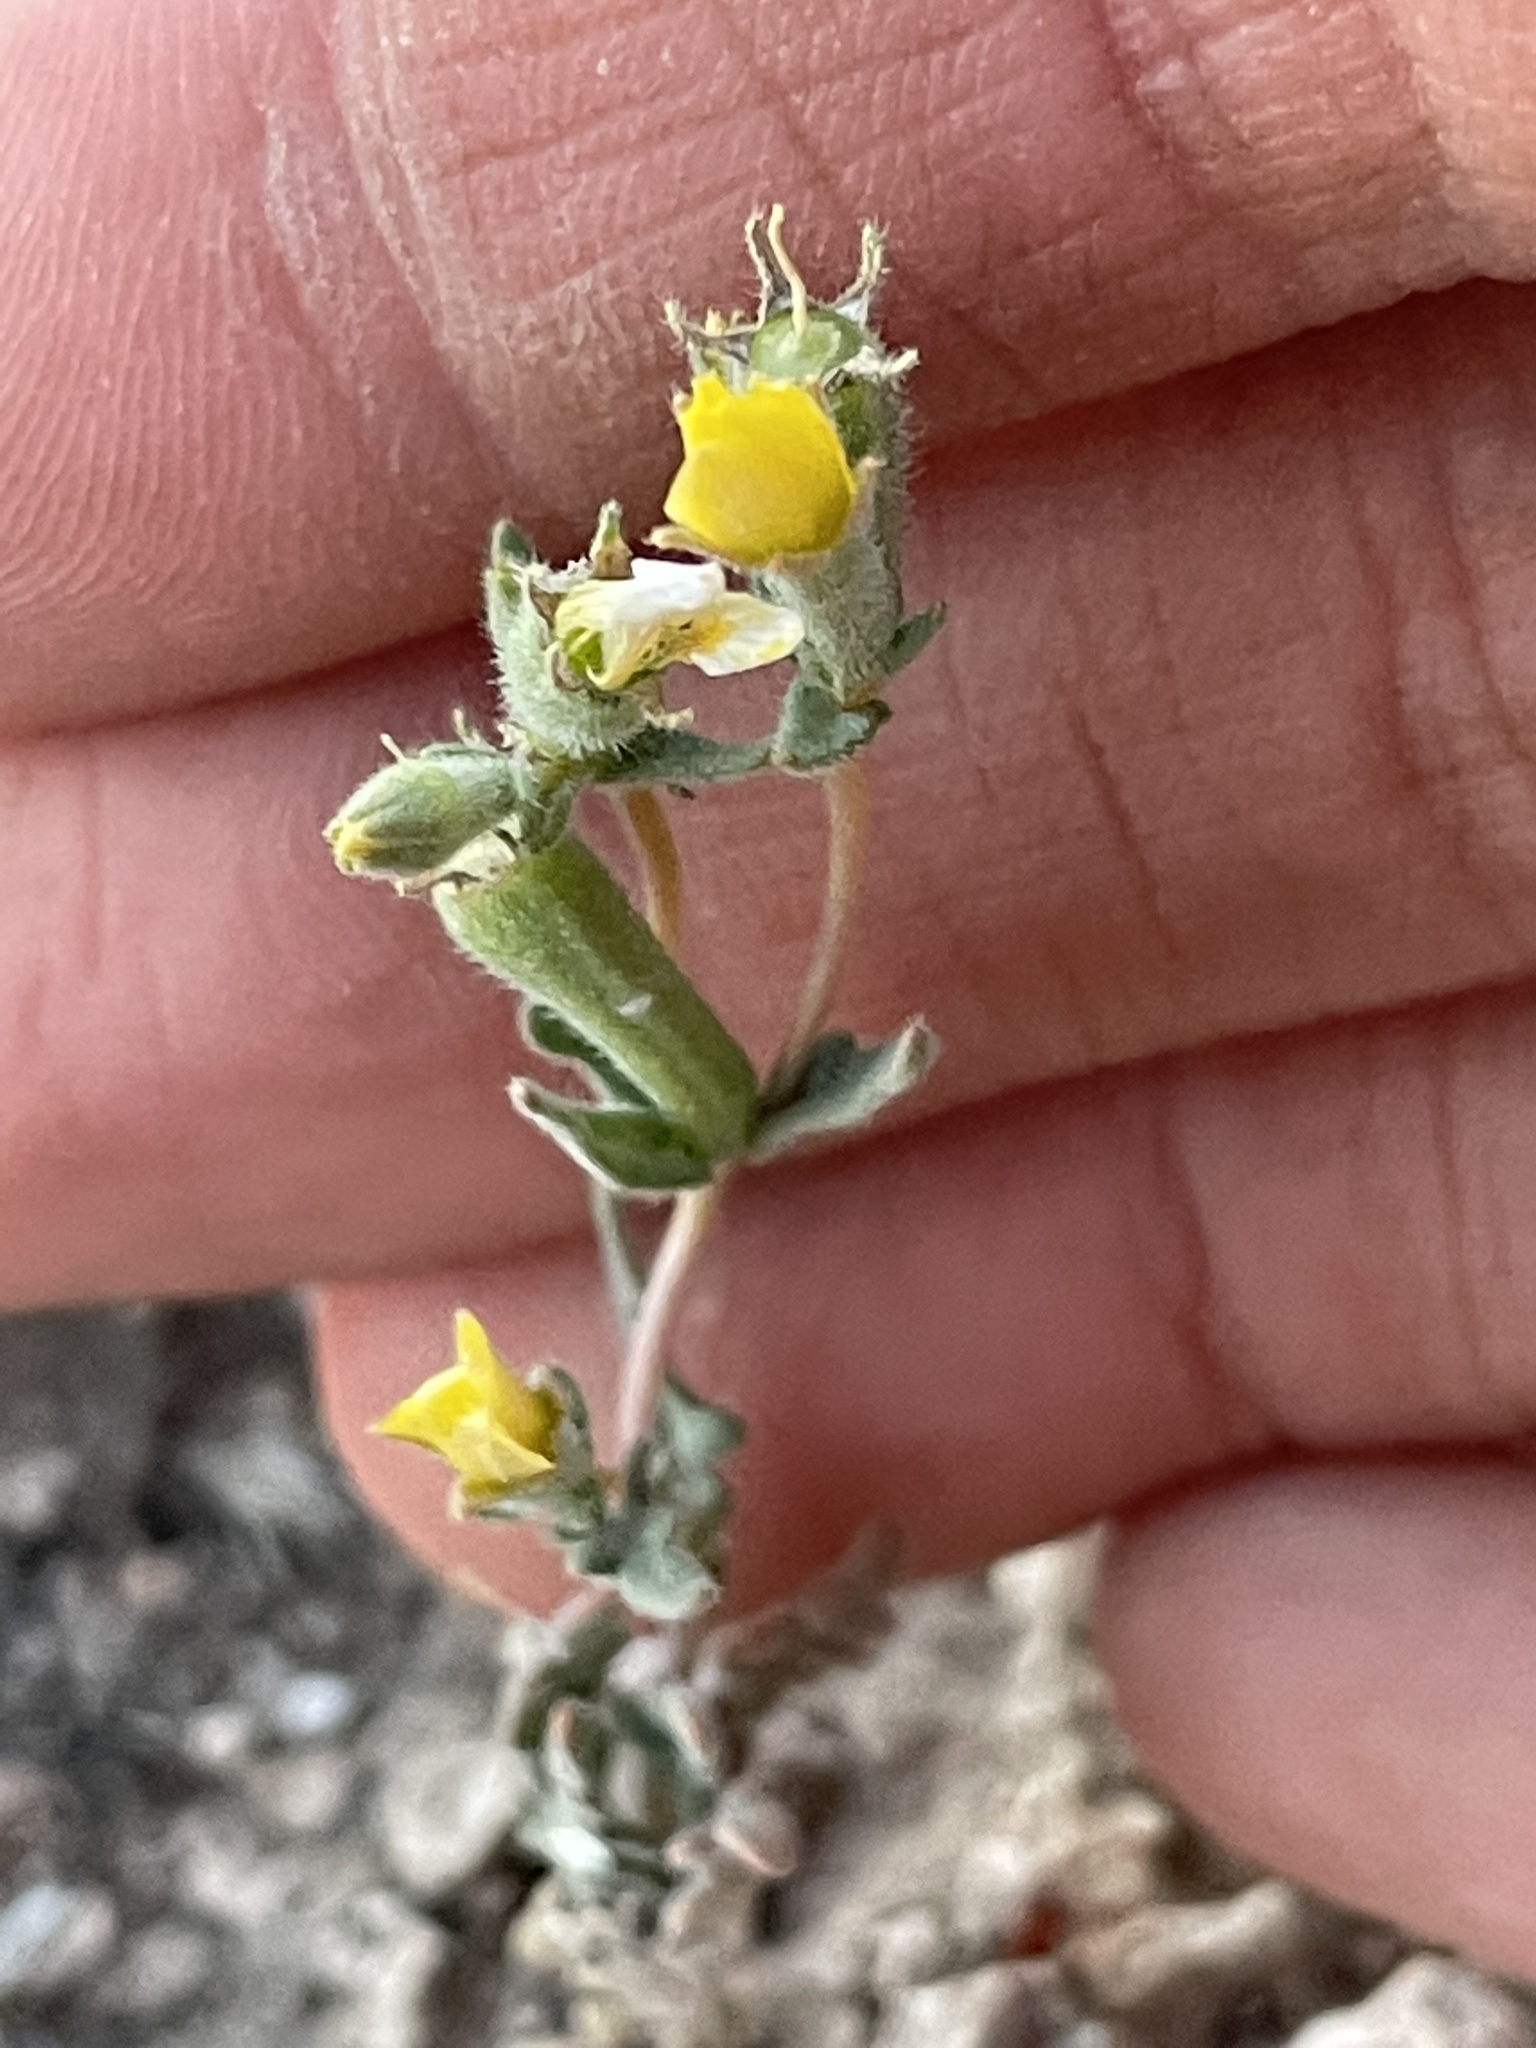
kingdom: Plantae
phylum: Tracheophyta
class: Magnoliopsida
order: Cornales
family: Loasaceae
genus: Mentzelia
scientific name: Mentzelia albicaulis
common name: White-stem blazingstar
